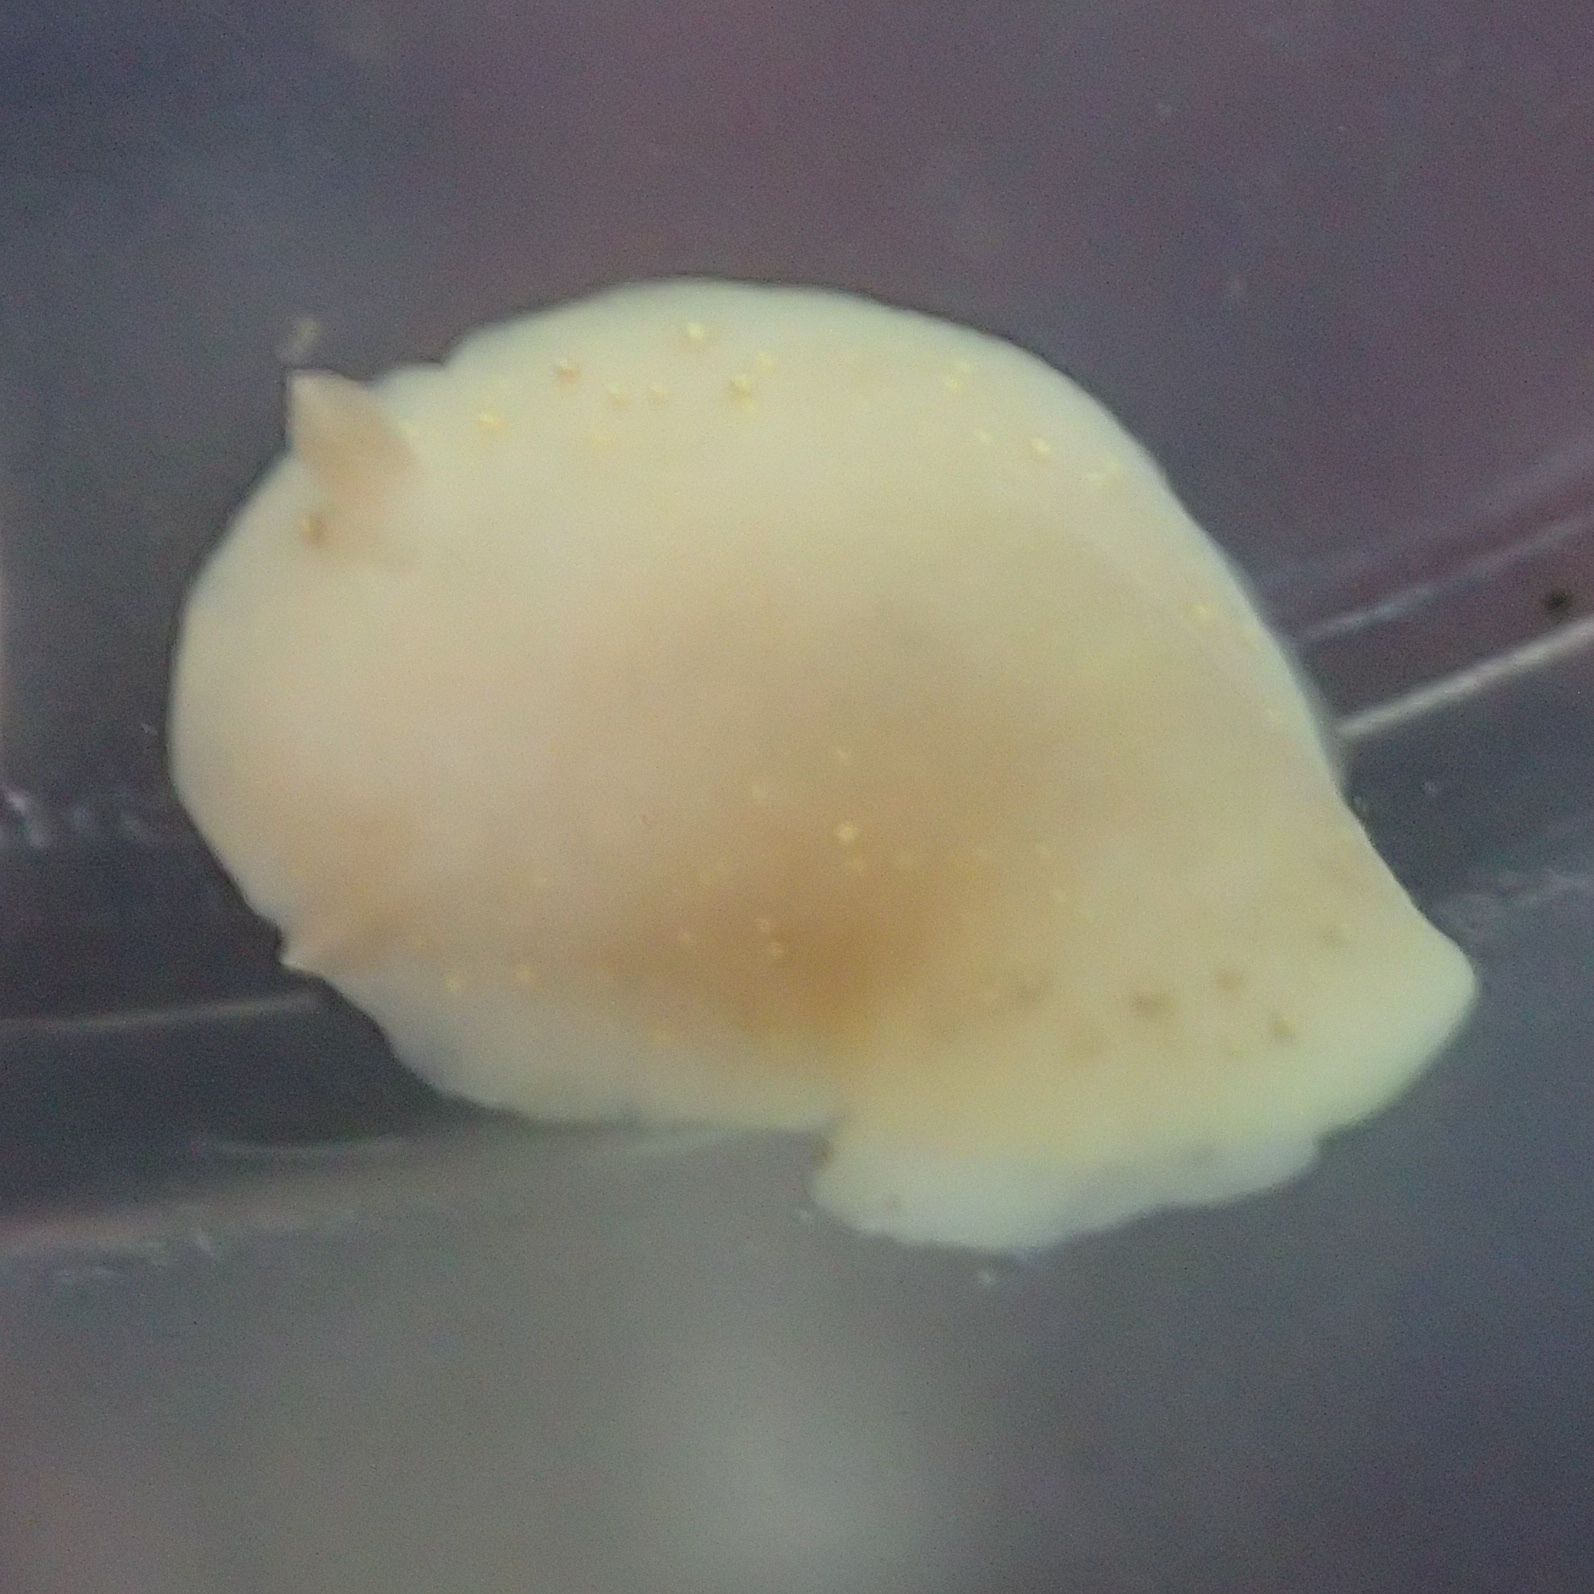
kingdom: Animalia
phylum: Mollusca
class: Gastropoda
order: Nudibranchia
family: Cadlinidae
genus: Cadlina
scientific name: Cadlina modesta
